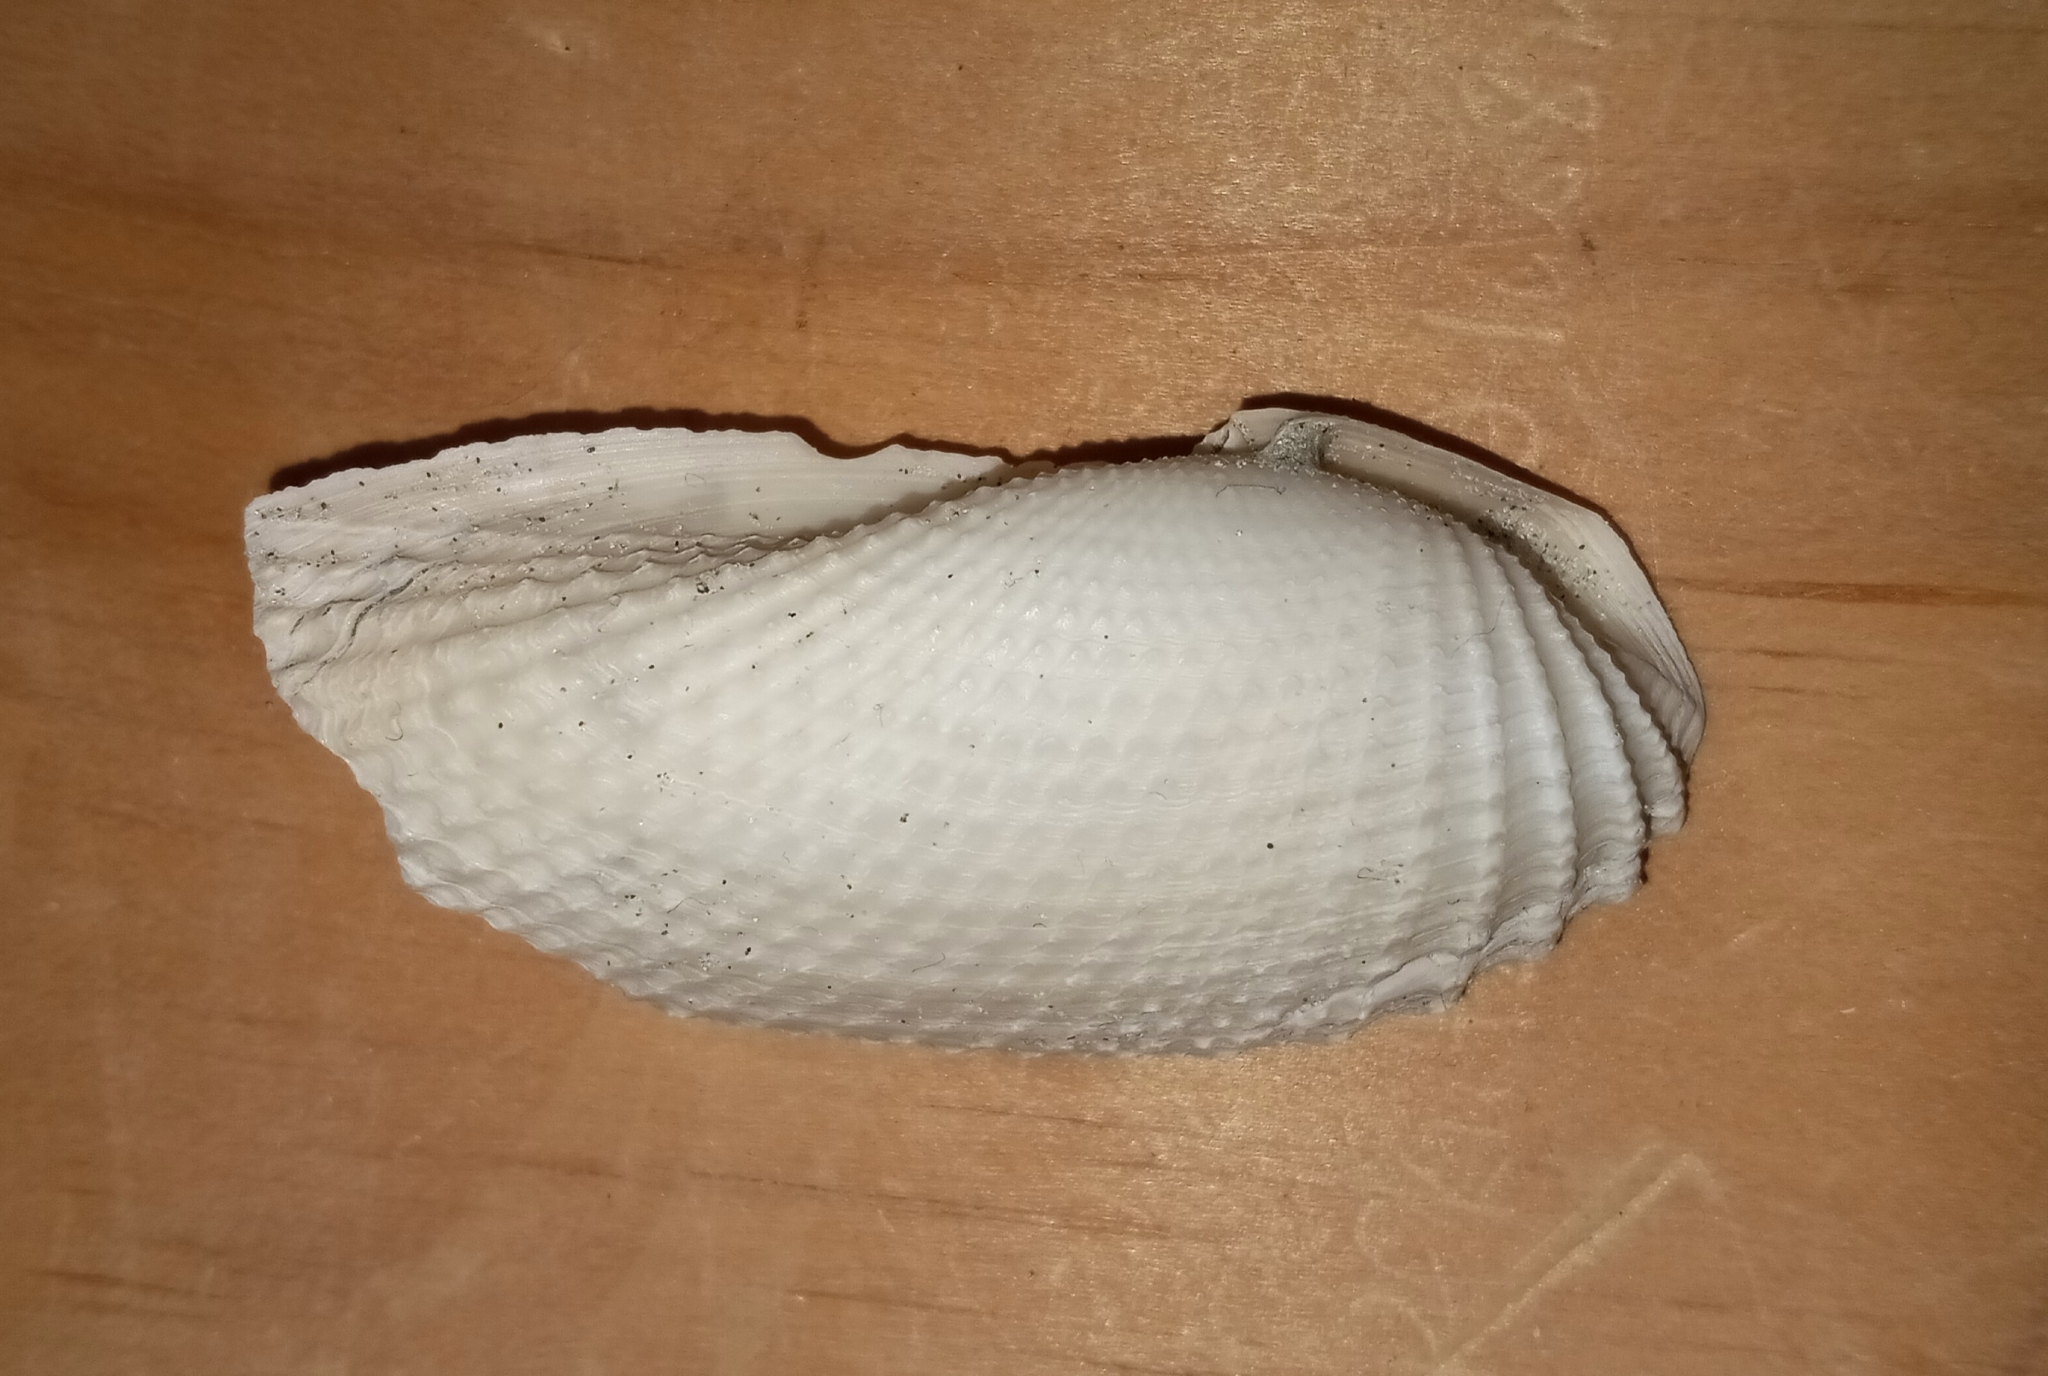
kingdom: Animalia
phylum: Mollusca
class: Bivalvia
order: Myida
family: Pholadidae
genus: Cyrtopleura
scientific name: Cyrtopleura costata
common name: Angel wing
